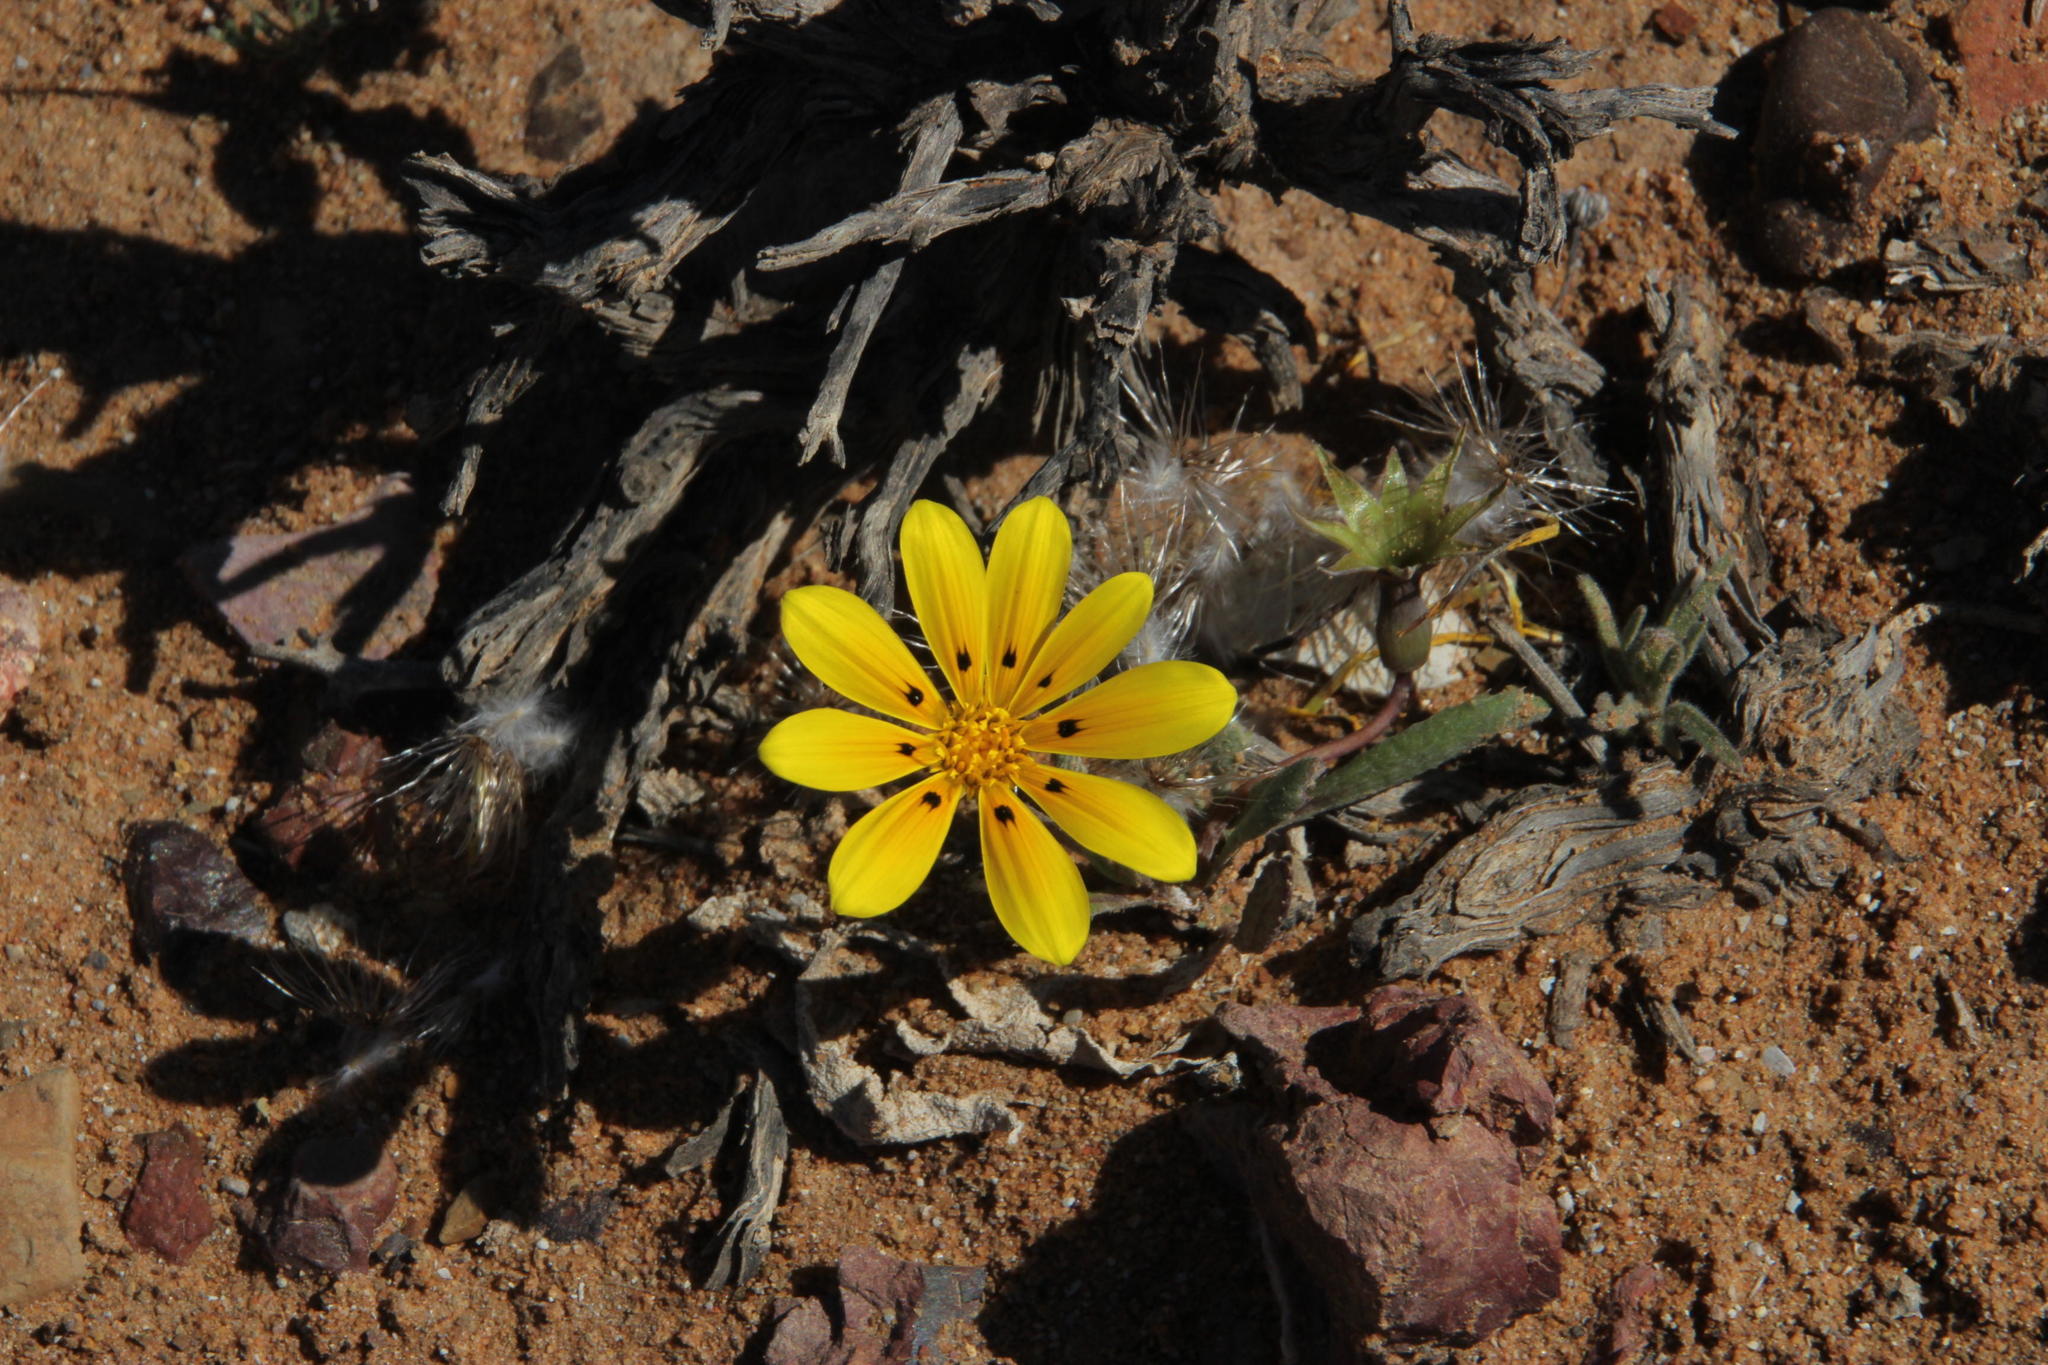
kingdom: Plantae
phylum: Tracheophyta
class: Magnoliopsida
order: Asterales
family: Asteraceae
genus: Gazania
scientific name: Gazania lichtensteinii
